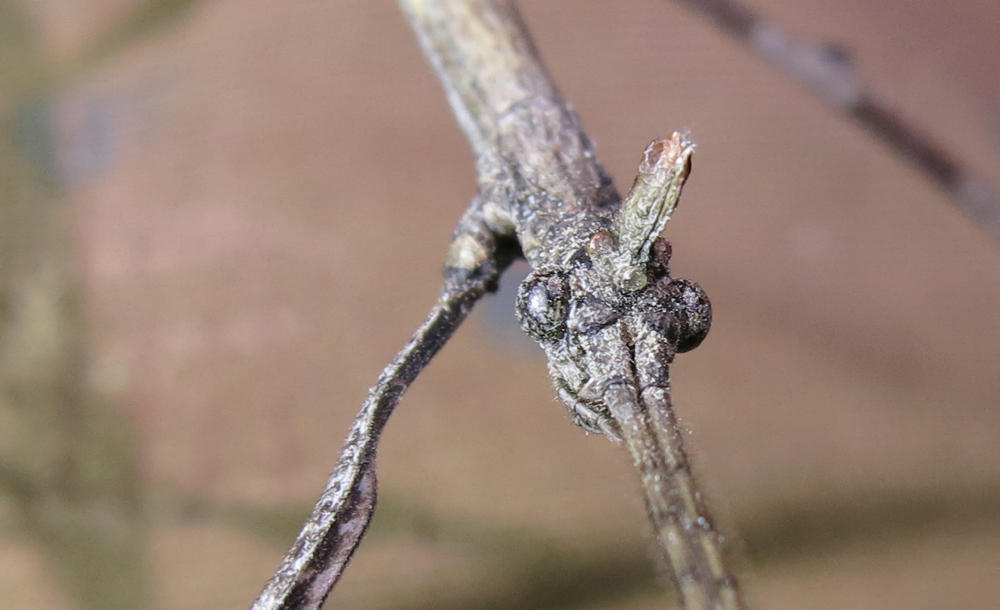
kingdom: Animalia
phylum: Arthropoda
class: Insecta
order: Phasmida
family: Diapheromeridae
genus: Bactrododema
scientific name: Bactrododema krugeri
